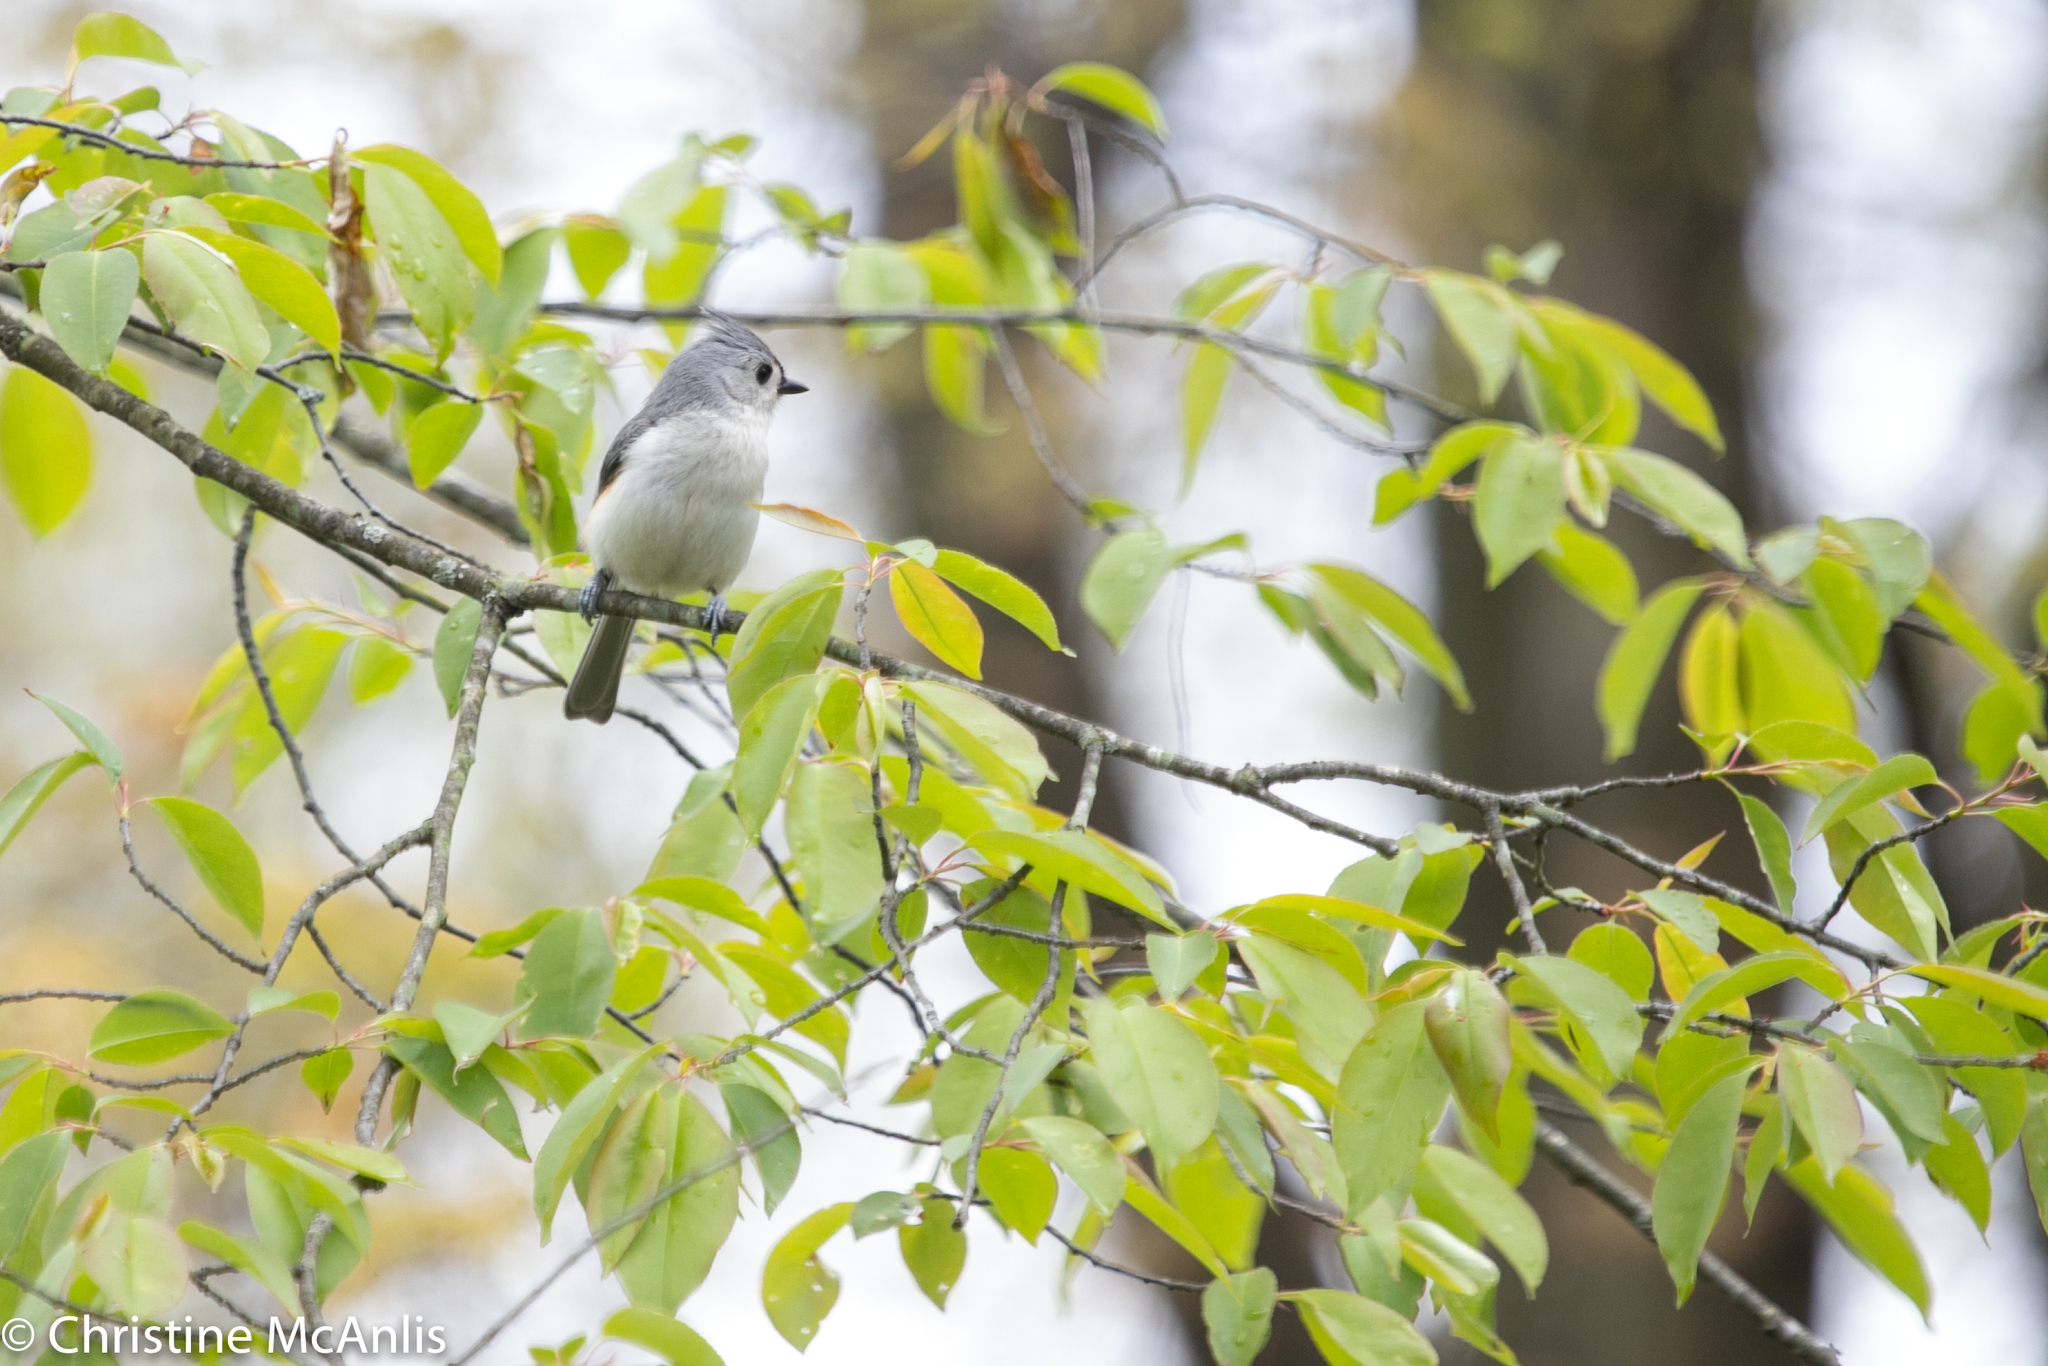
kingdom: Animalia
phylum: Chordata
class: Aves
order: Passeriformes
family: Paridae
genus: Baeolophus
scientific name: Baeolophus bicolor
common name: Tufted titmouse
